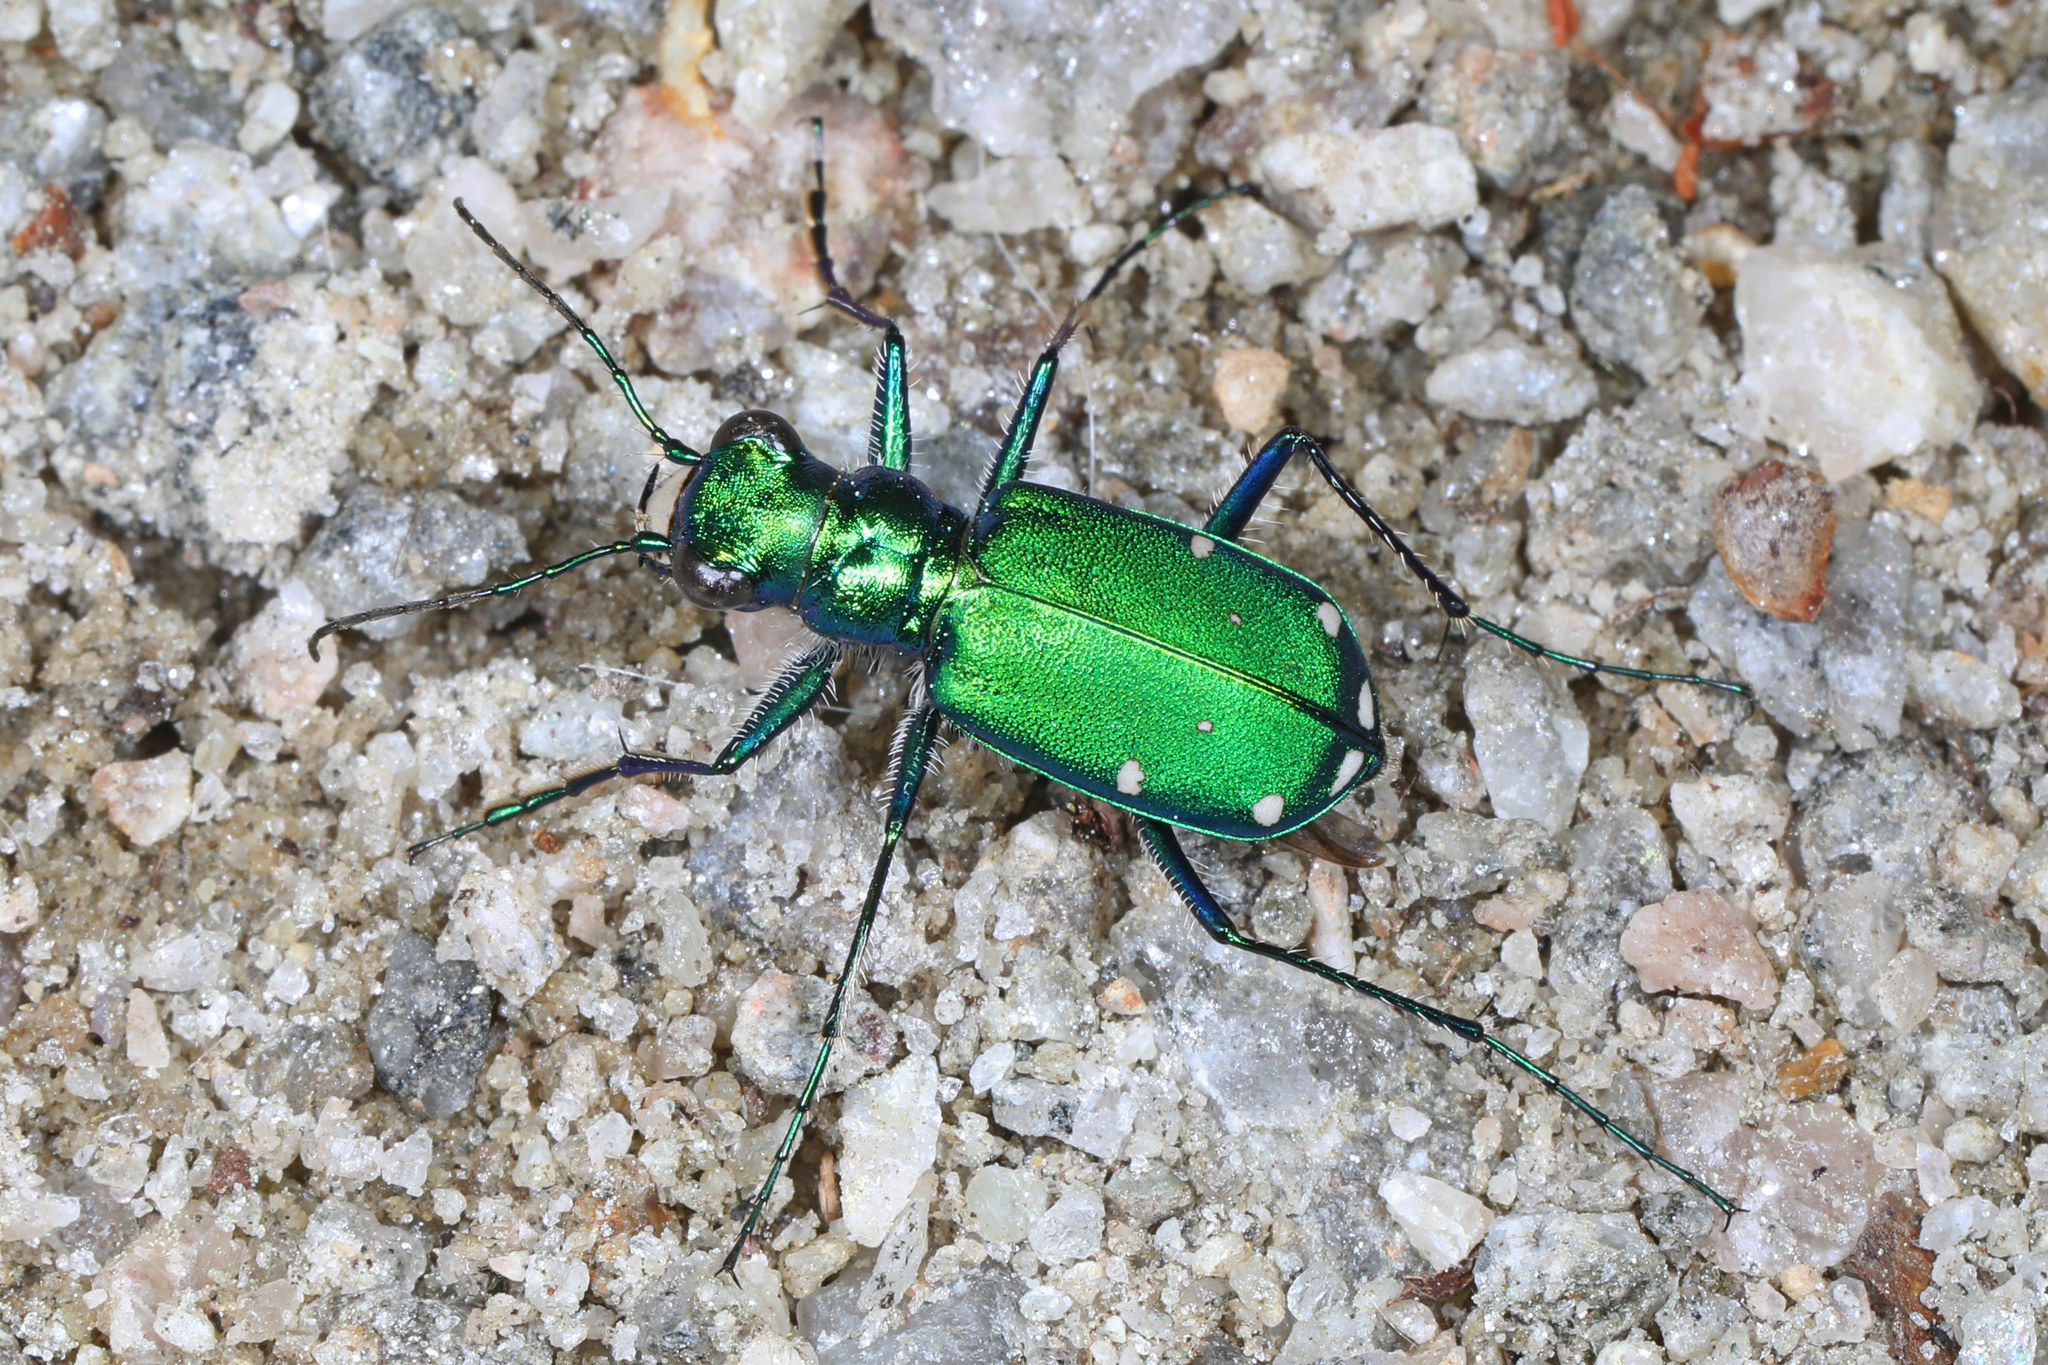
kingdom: Animalia
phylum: Arthropoda
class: Insecta
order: Coleoptera
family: Carabidae
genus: Cicindela
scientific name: Cicindela sexguttata
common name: Six-spotted tiger beetle
